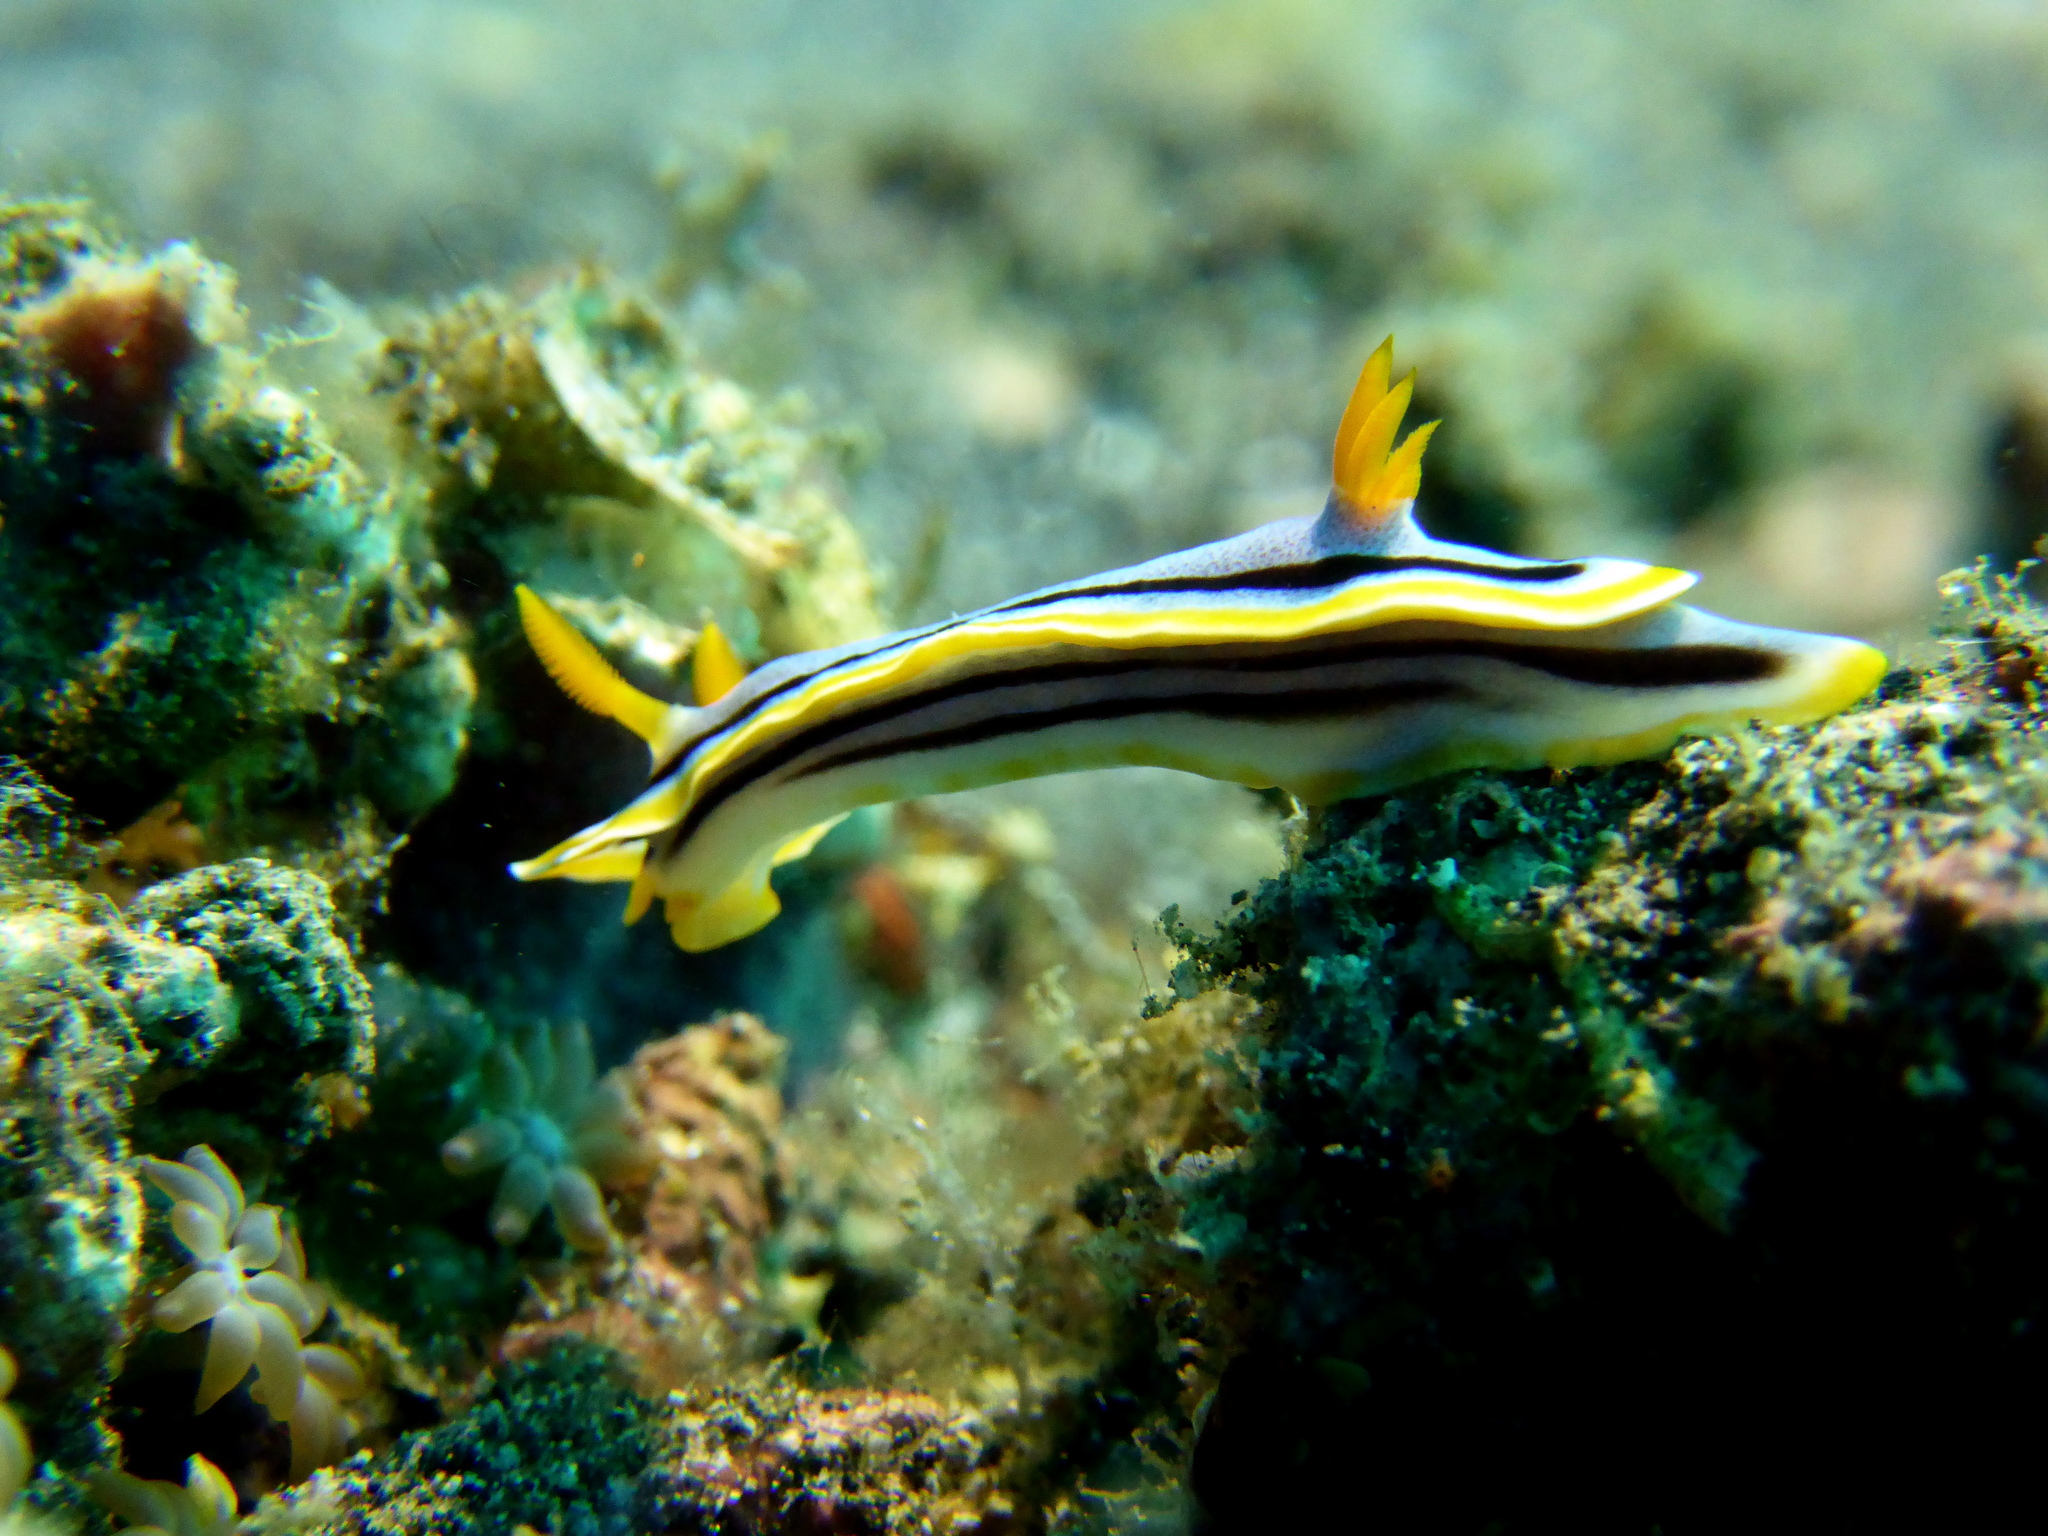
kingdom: Animalia
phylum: Mollusca
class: Gastropoda
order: Nudibranchia
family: Chromodorididae
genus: Chromodoris
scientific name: Chromodoris annae
